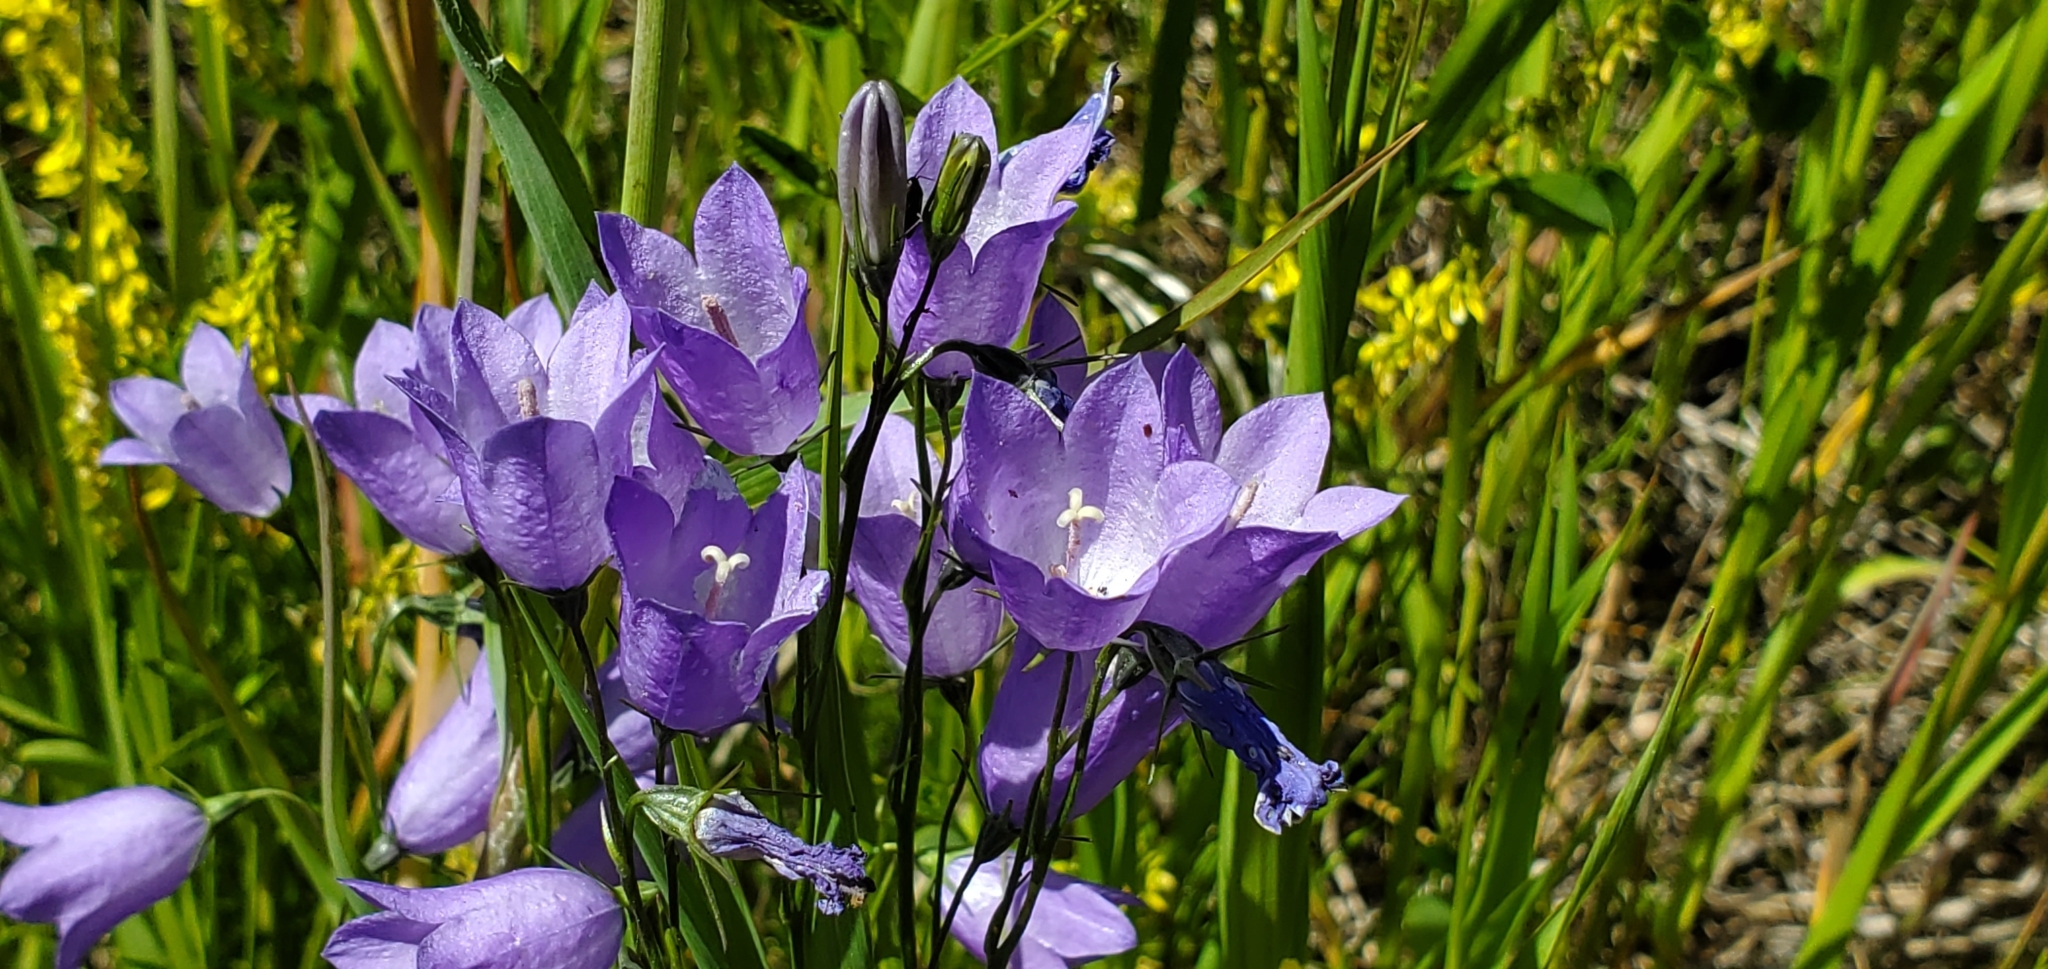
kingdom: Plantae
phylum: Tracheophyta
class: Magnoliopsida
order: Asterales
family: Campanulaceae
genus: Campanula
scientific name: Campanula alaskana
